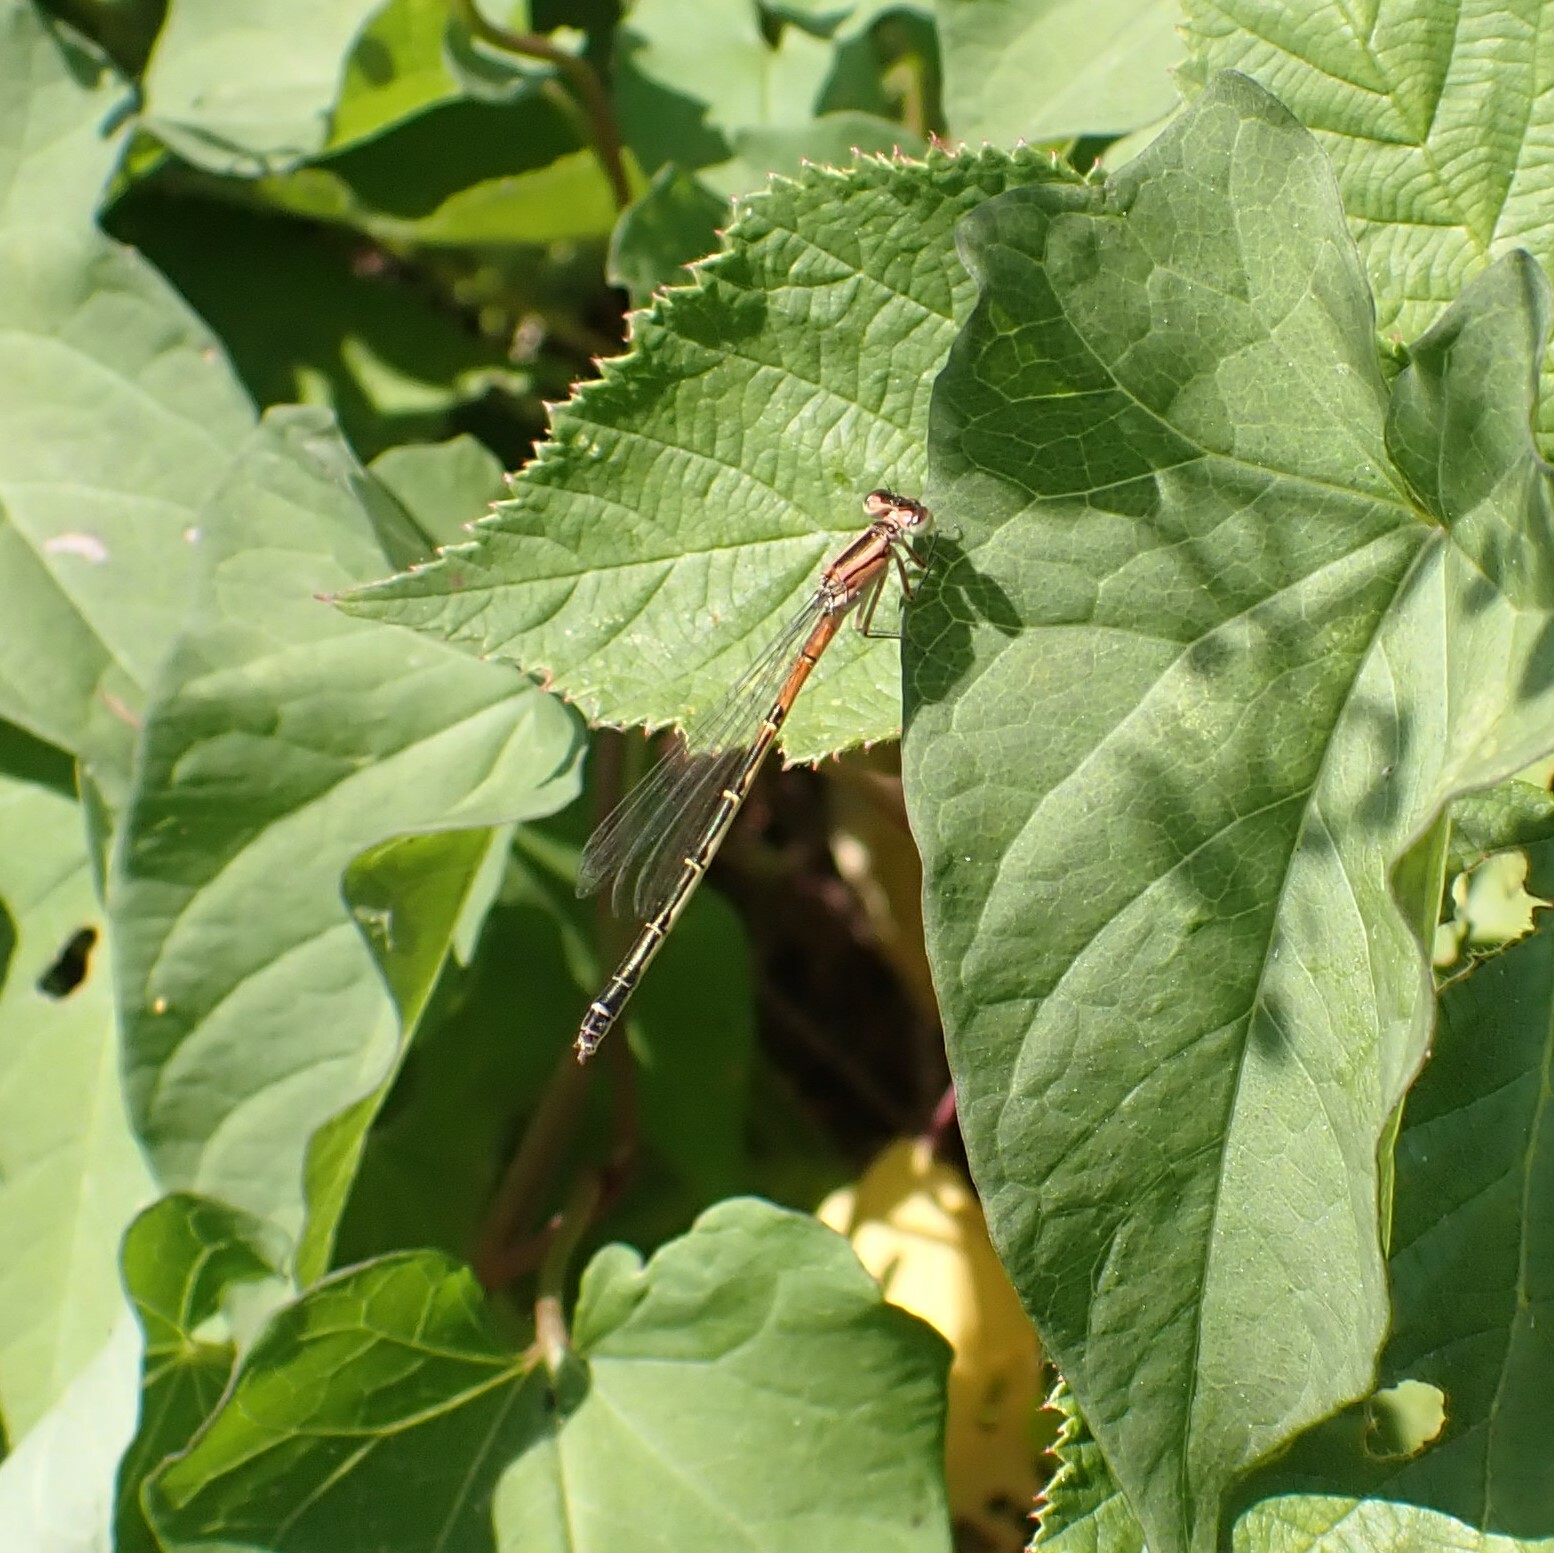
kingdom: Animalia
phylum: Arthropoda
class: Insecta
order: Odonata
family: Coenagrionidae
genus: Ischnura
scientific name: Ischnura perparva
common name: Western forktail
